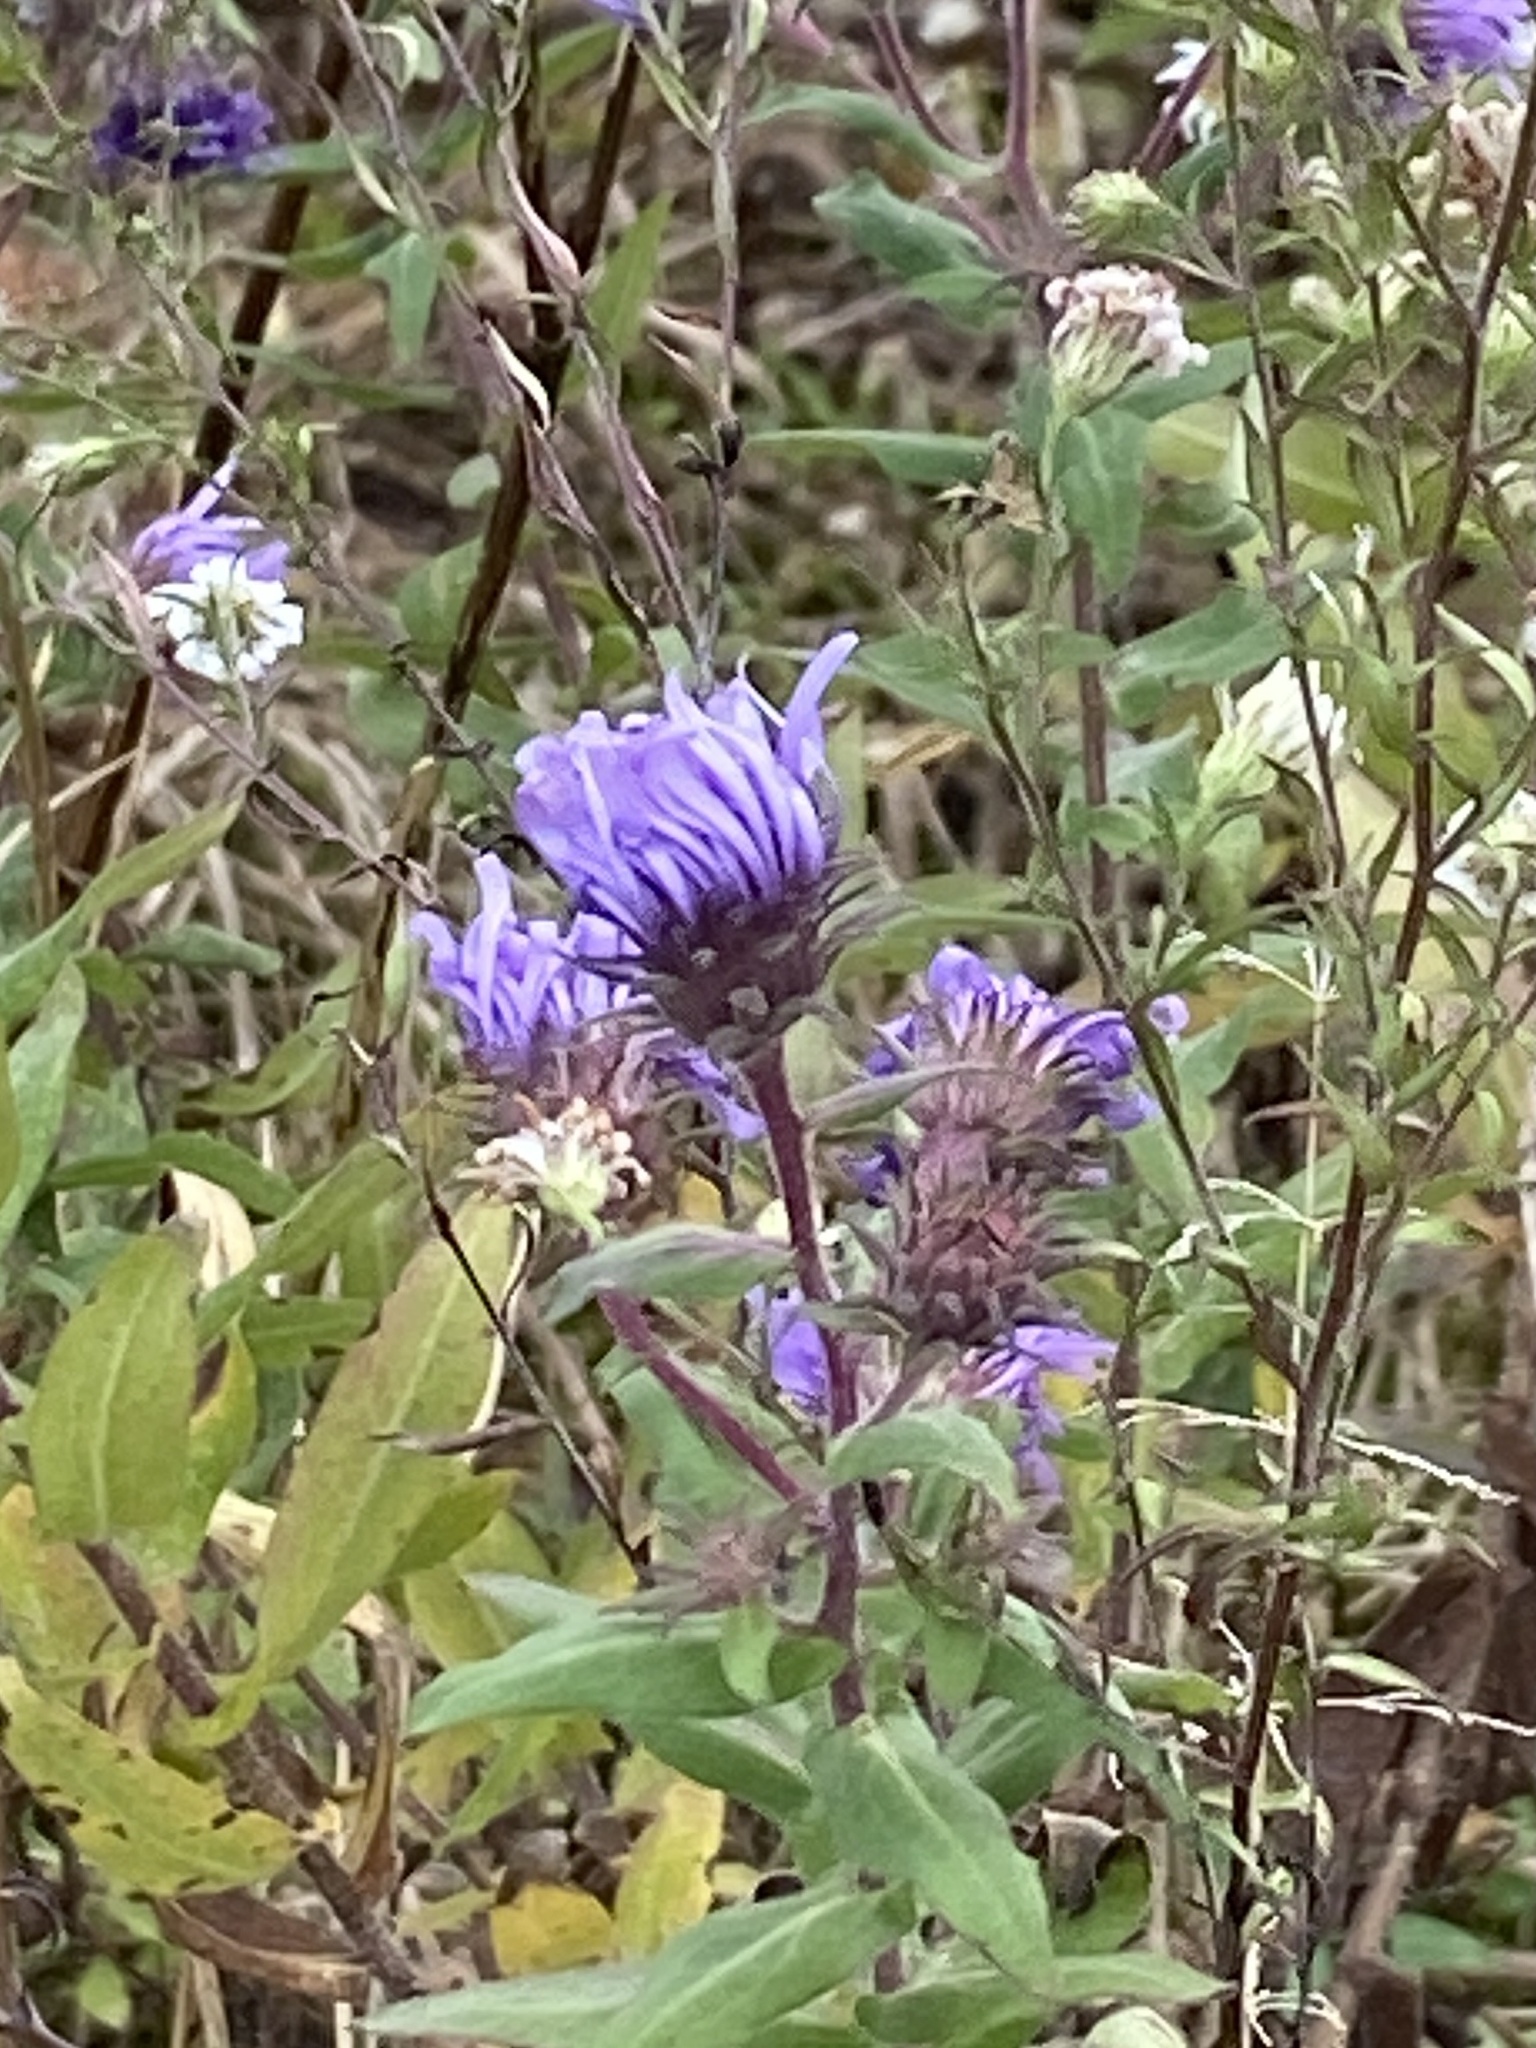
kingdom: Plantae
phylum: Tracheophyta
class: Magnoliopsida
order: Asterales
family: Asteraceae
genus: Symphyotrichum
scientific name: Symphyotrichum novae-angliae
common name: Michaelmas daisy
